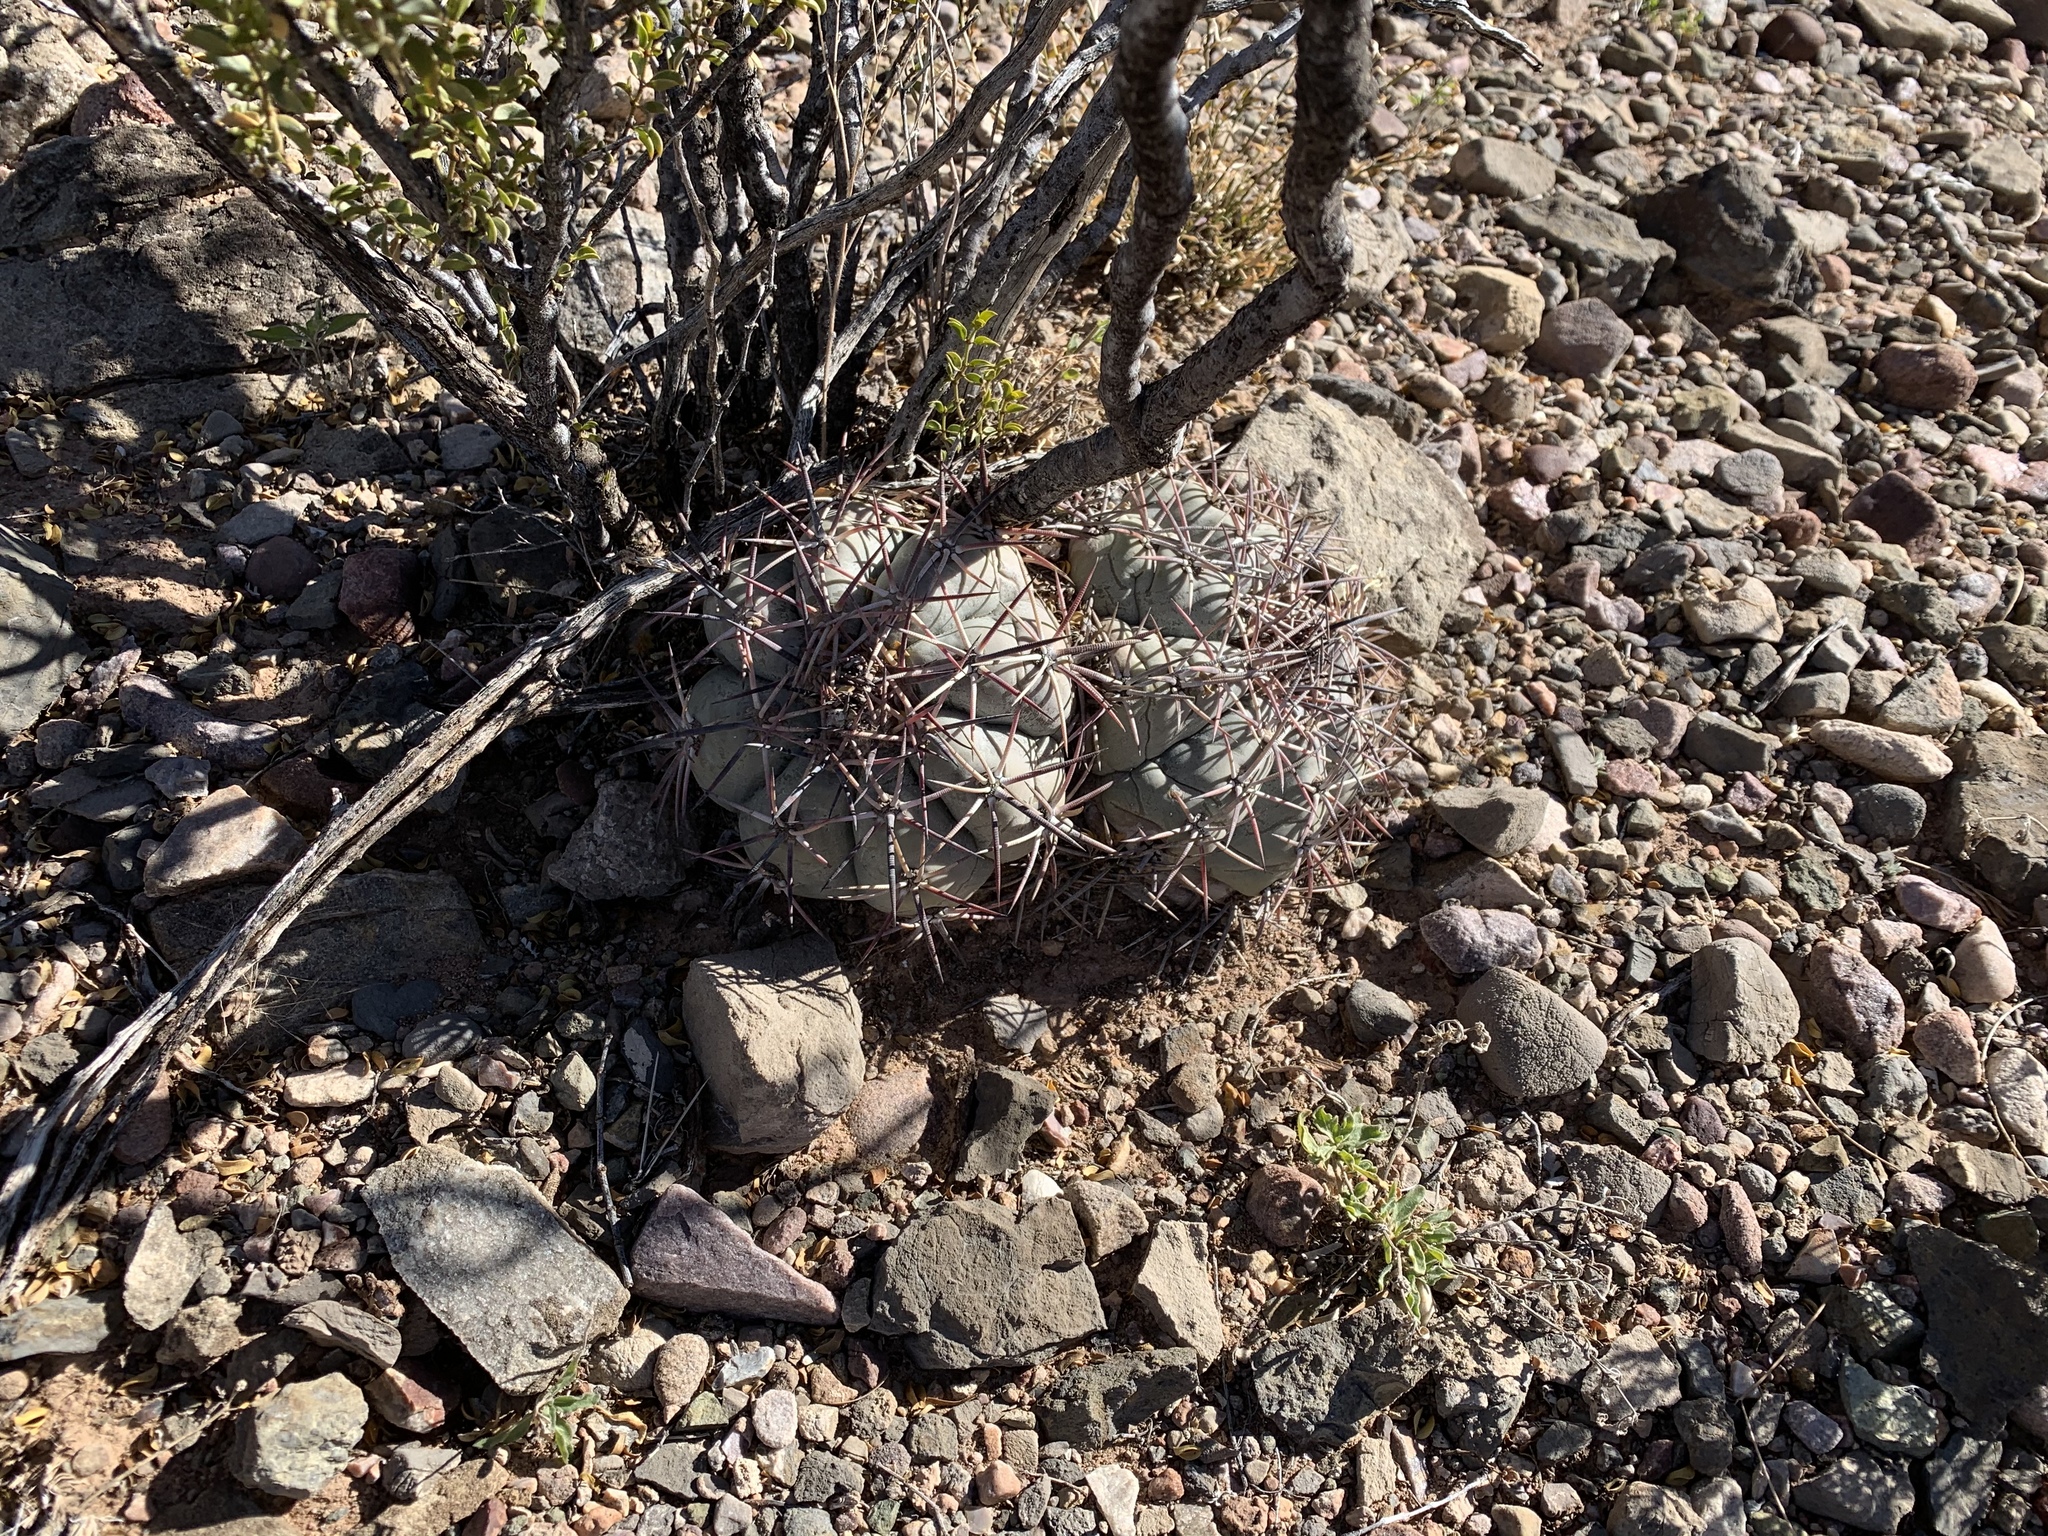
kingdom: Plantae
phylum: Tracheophyta
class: Magnoliopsida
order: Caryophyllales
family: Cactaceae
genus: Echinocactus
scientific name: Echinocactus horizonthalonius
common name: Devilshead
